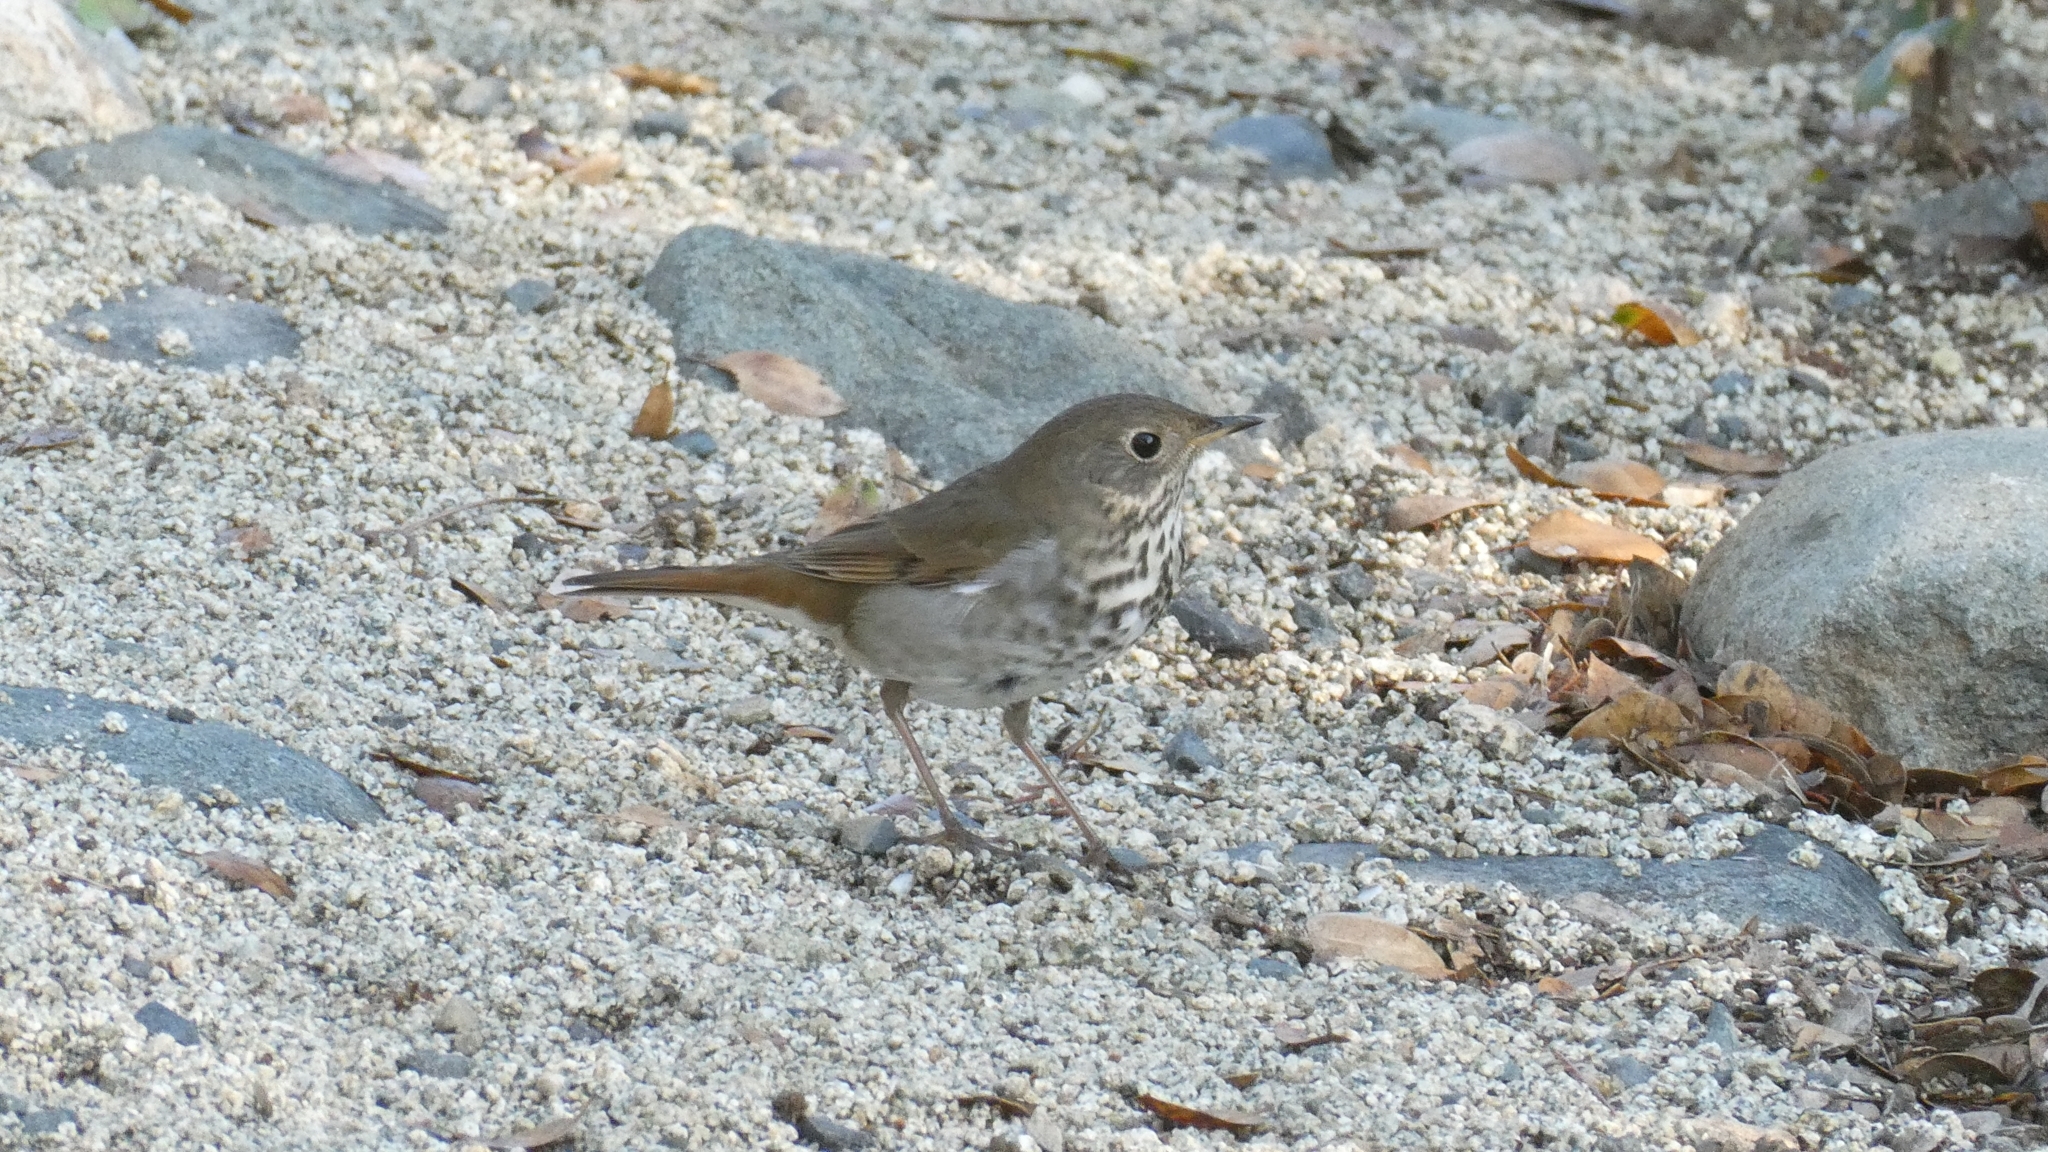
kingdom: Animalia
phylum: Chordata
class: Aves
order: Passeriformes
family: Turdidae
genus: Catharus
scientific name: Catharus guttatus
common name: Hermit thrush
